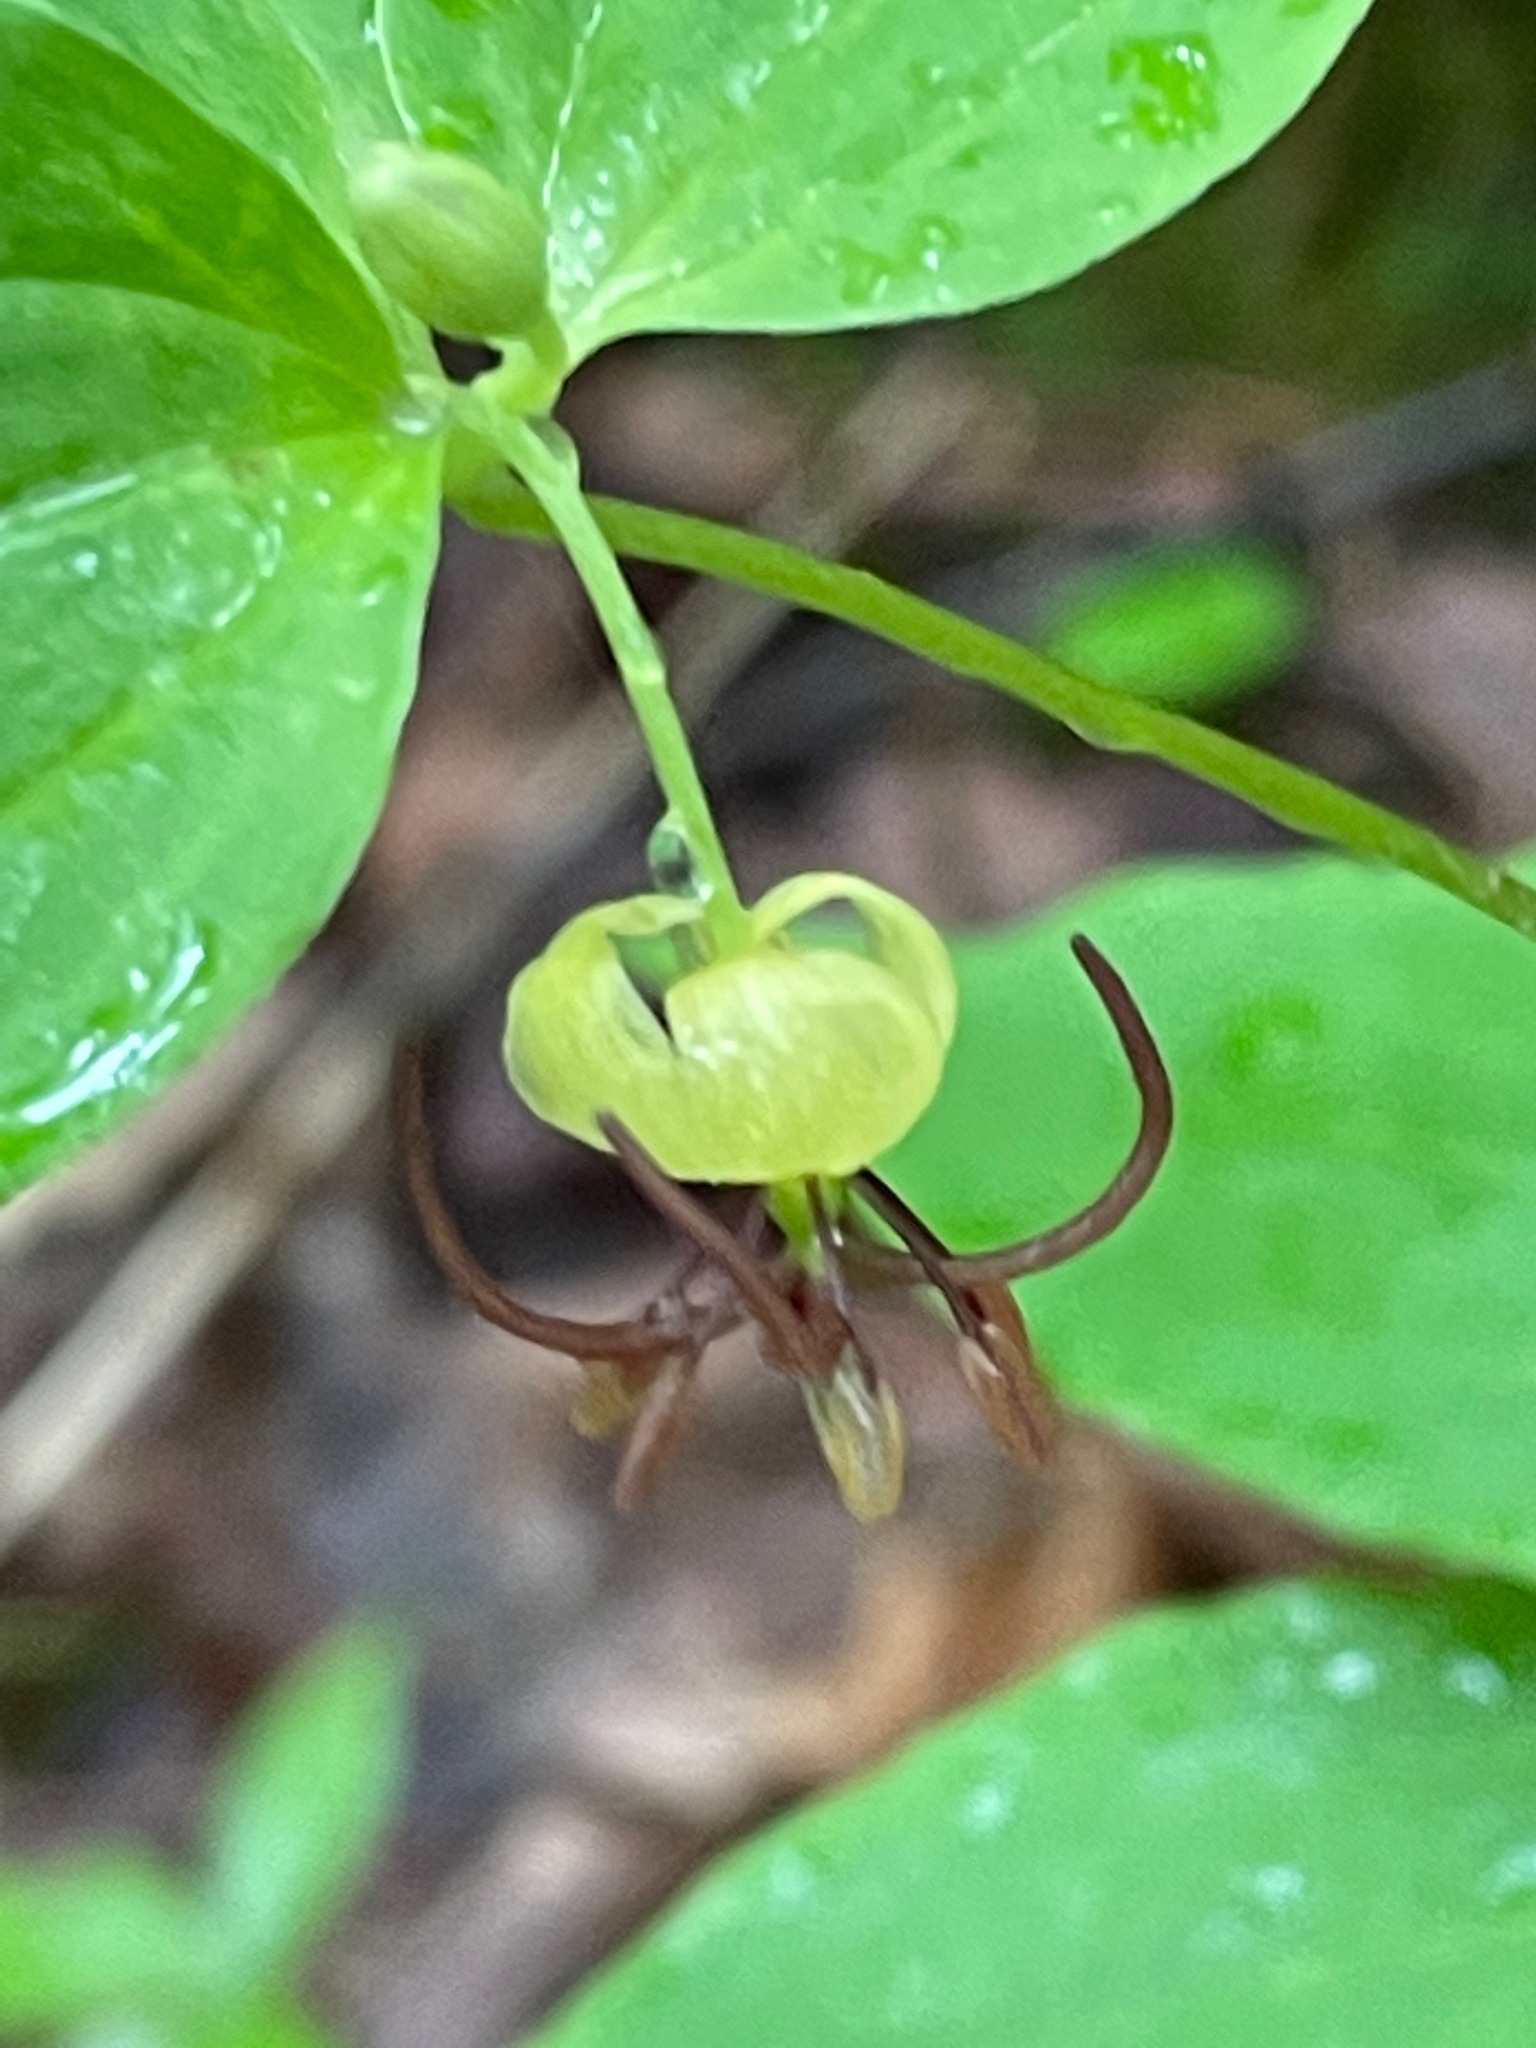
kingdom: Plantae
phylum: Tracheophyta
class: Liliopsida
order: Liliales
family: Liliaceae
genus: Medeola
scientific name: Medeola virginiana
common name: Indian cucumber-root
